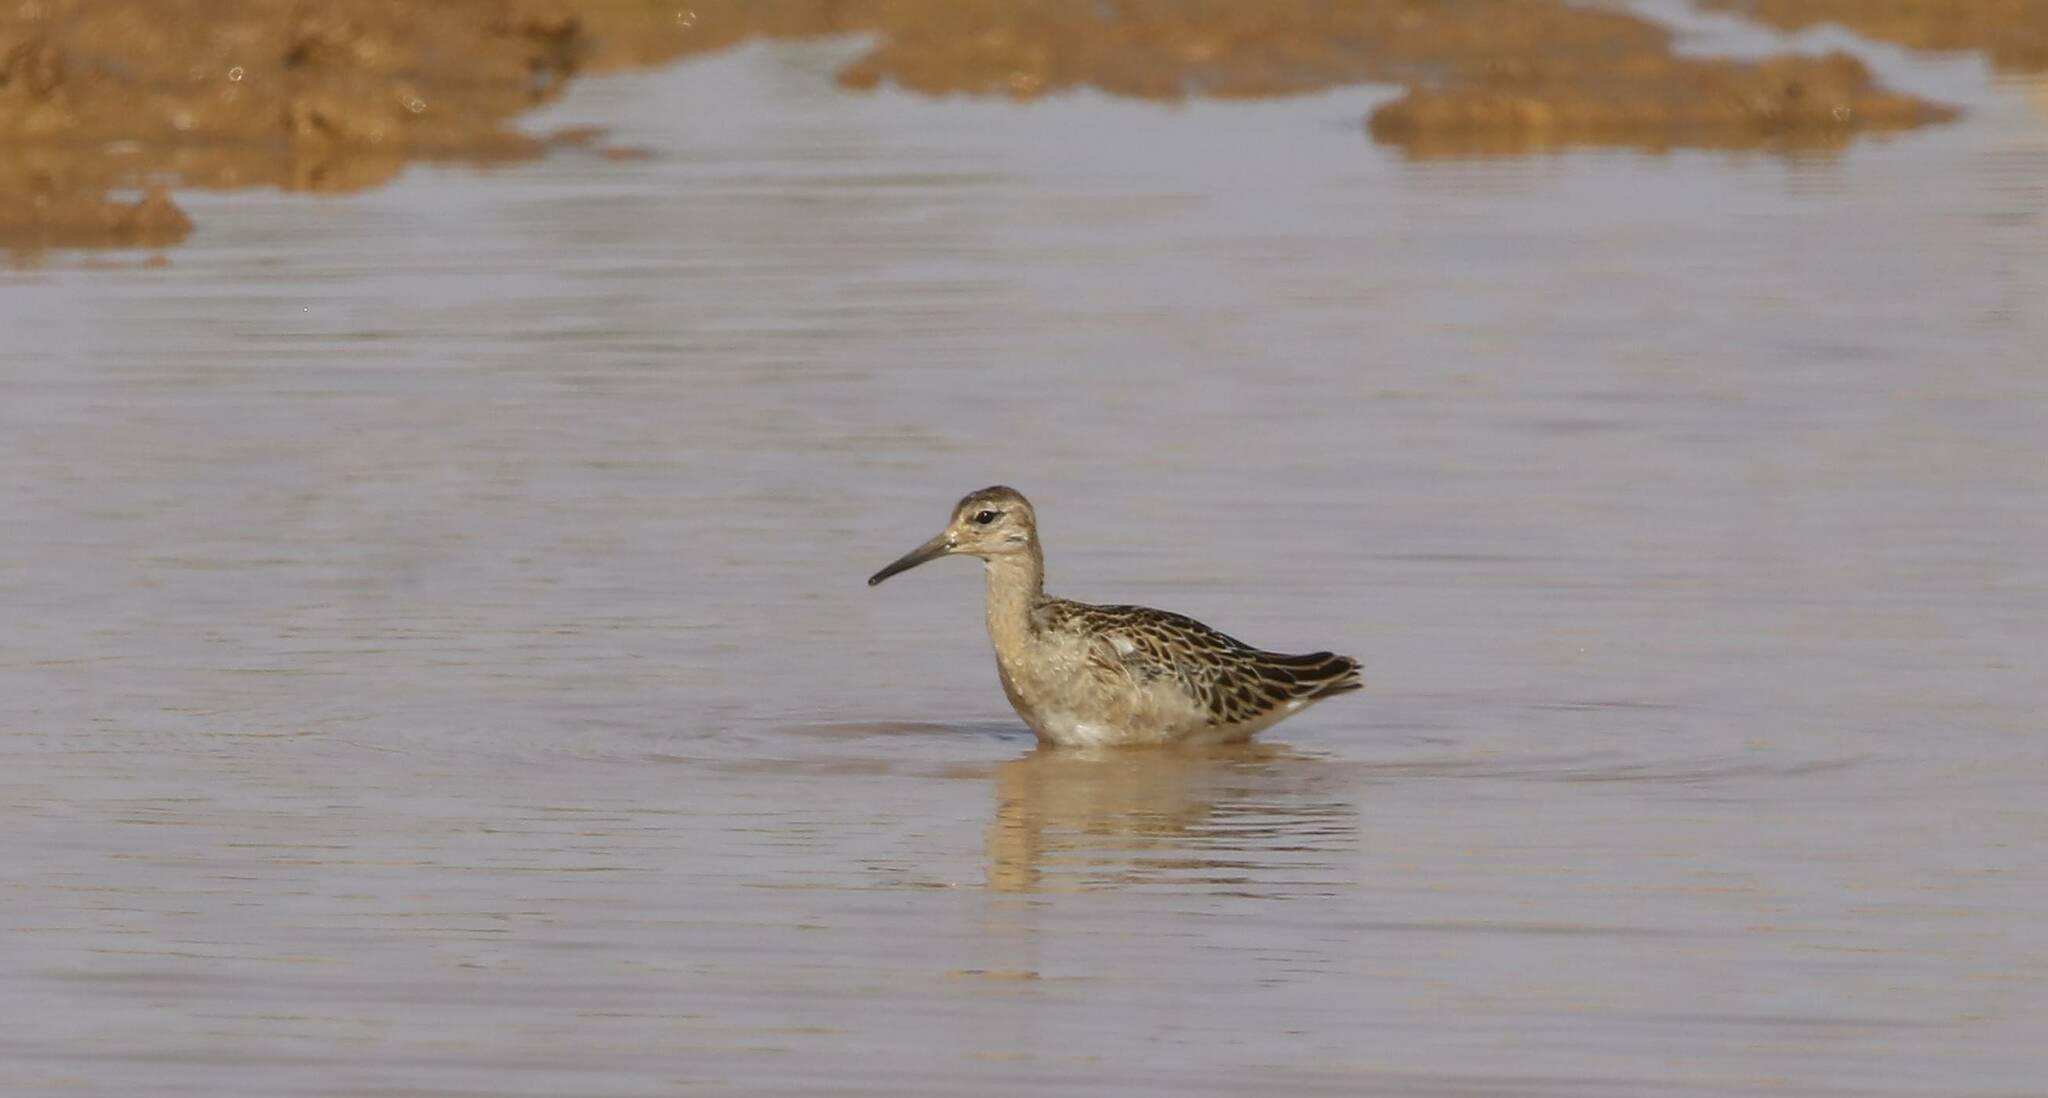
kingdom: Animalia
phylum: Chordata
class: Aves
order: Charadriiformes
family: Scolopacidae
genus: Calidris
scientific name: Calidris pugnax
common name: Ruff
